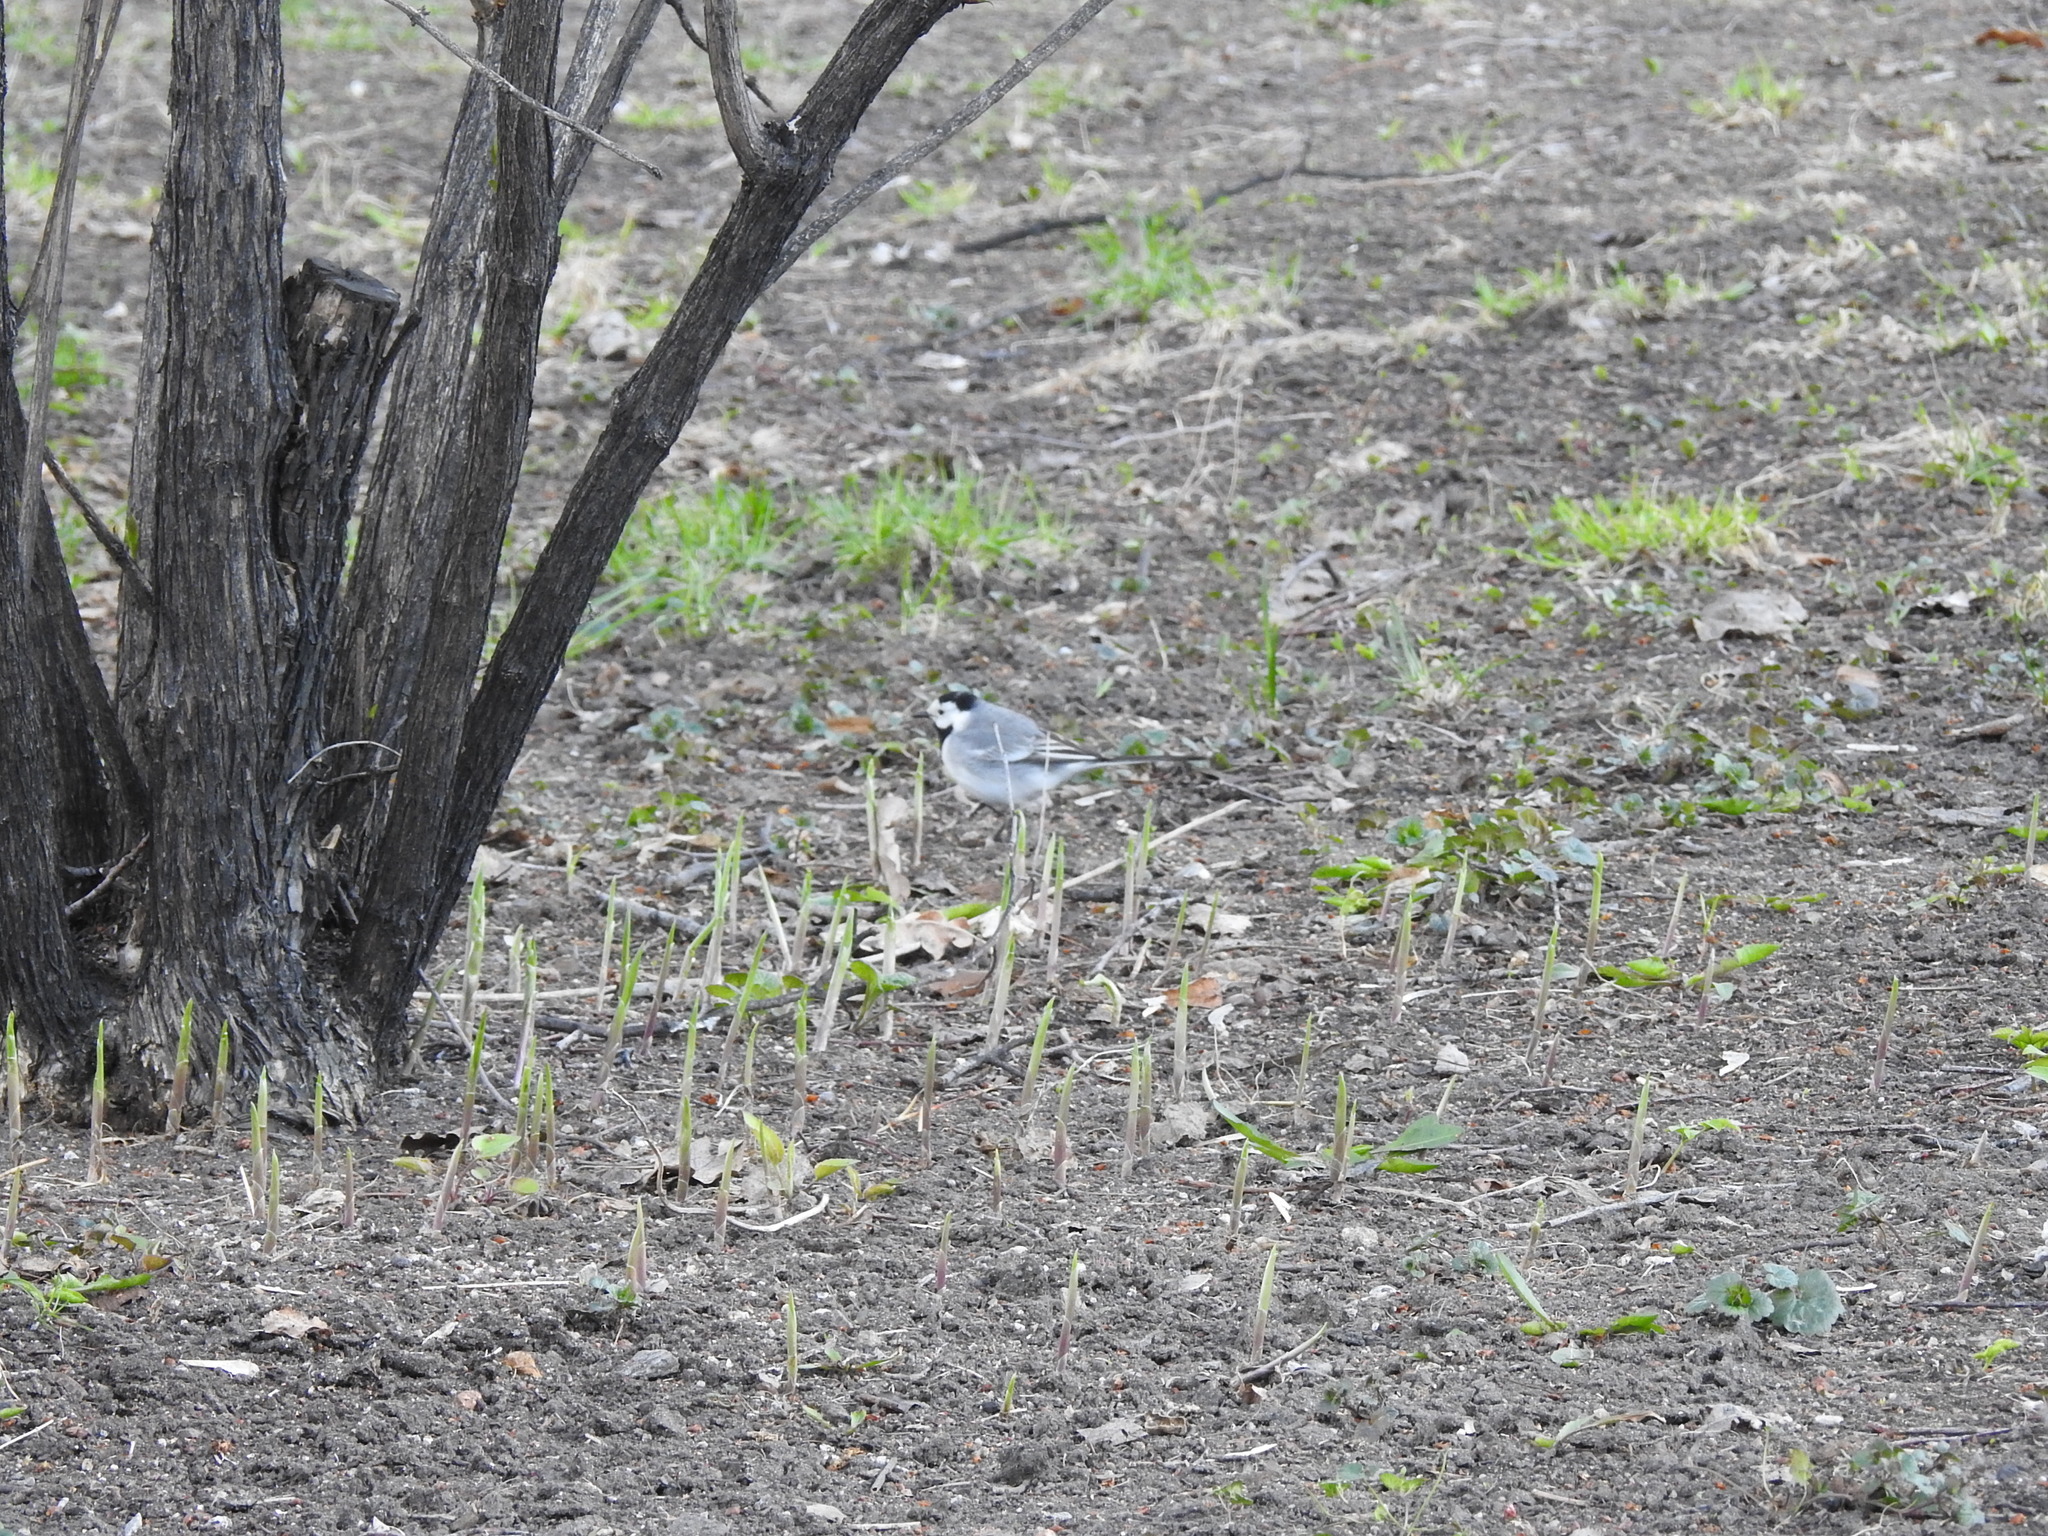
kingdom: Animalia
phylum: Chordata
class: Aves
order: Passeriformes
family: Motacillidae
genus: Motacilla
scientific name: Motacilla alba
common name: White wagtail
